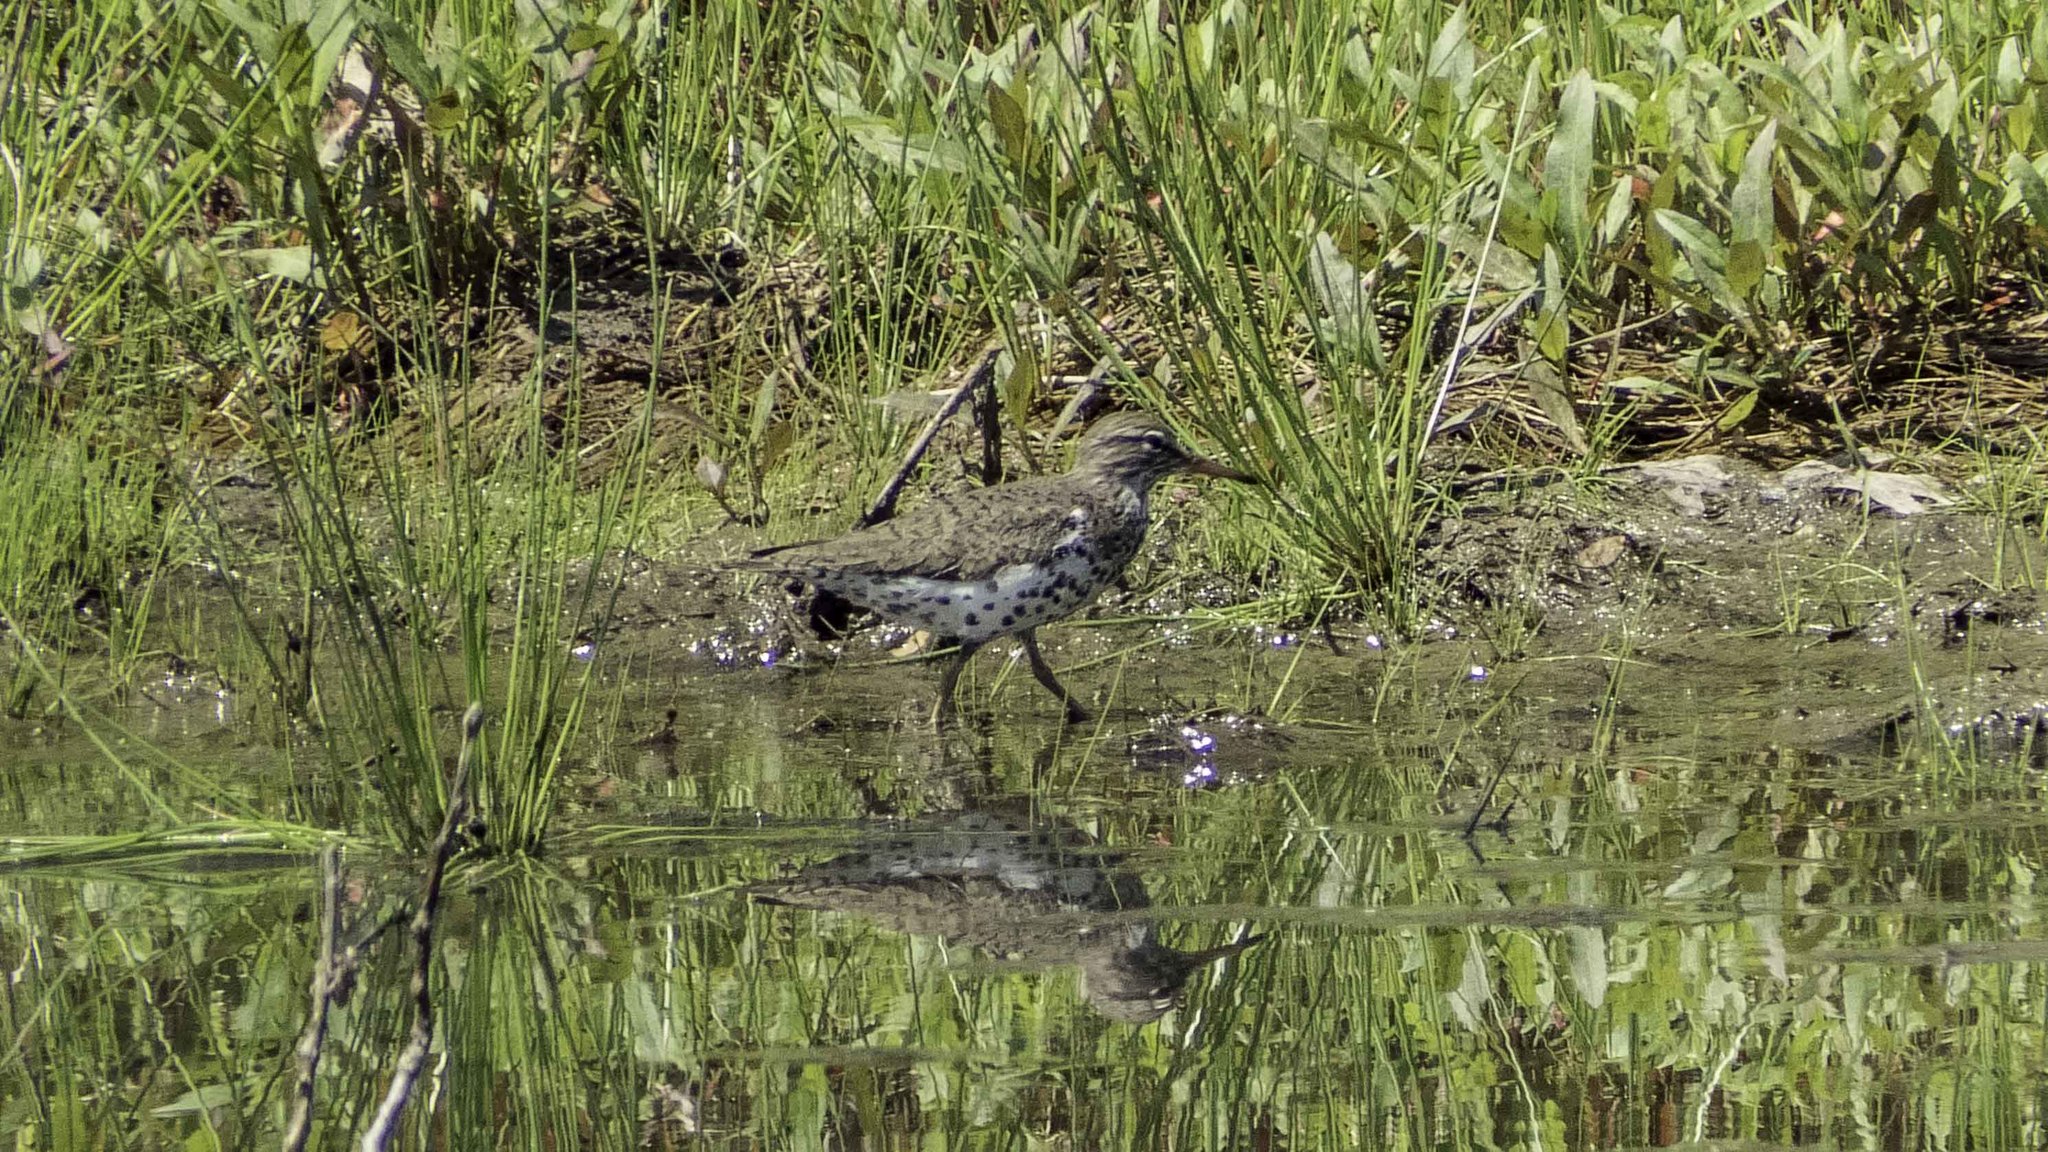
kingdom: Animalia
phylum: Chordata
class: Aves
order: Charadriiformes
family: Scolopacidae
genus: Actitis
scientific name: Actitis macularius
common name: Spotted sandpiper
